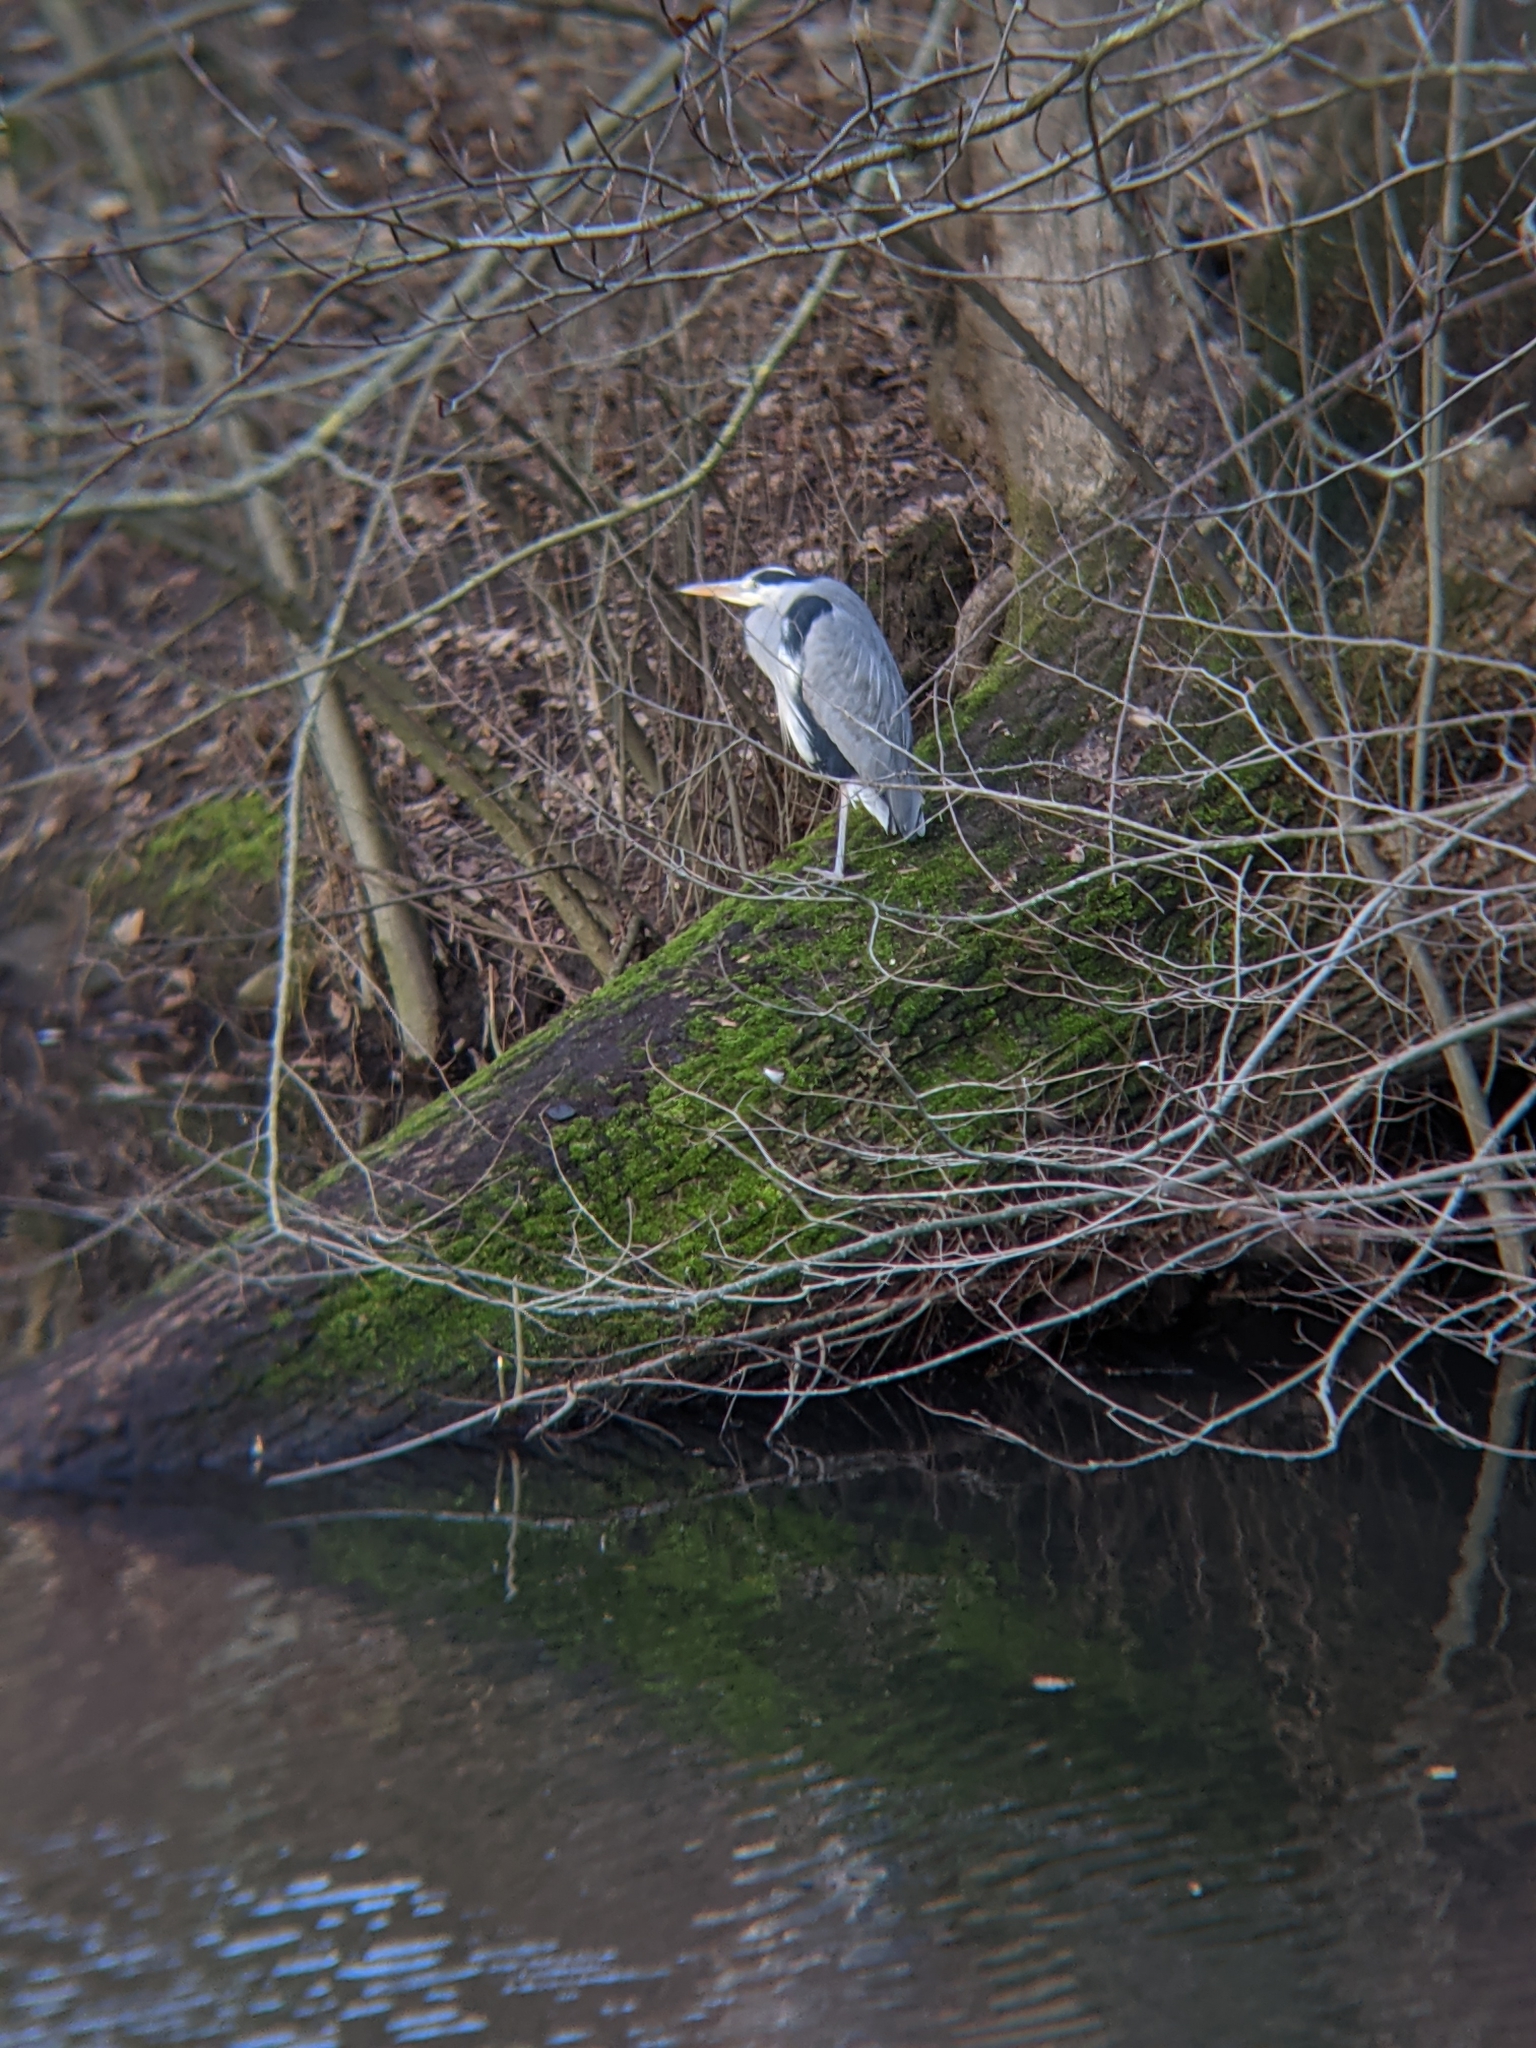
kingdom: Animalia
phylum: Chordata
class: Aves
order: Pelecaniformes
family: Ardeidae
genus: Ardea
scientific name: Ardea cinerea
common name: Grey heron
